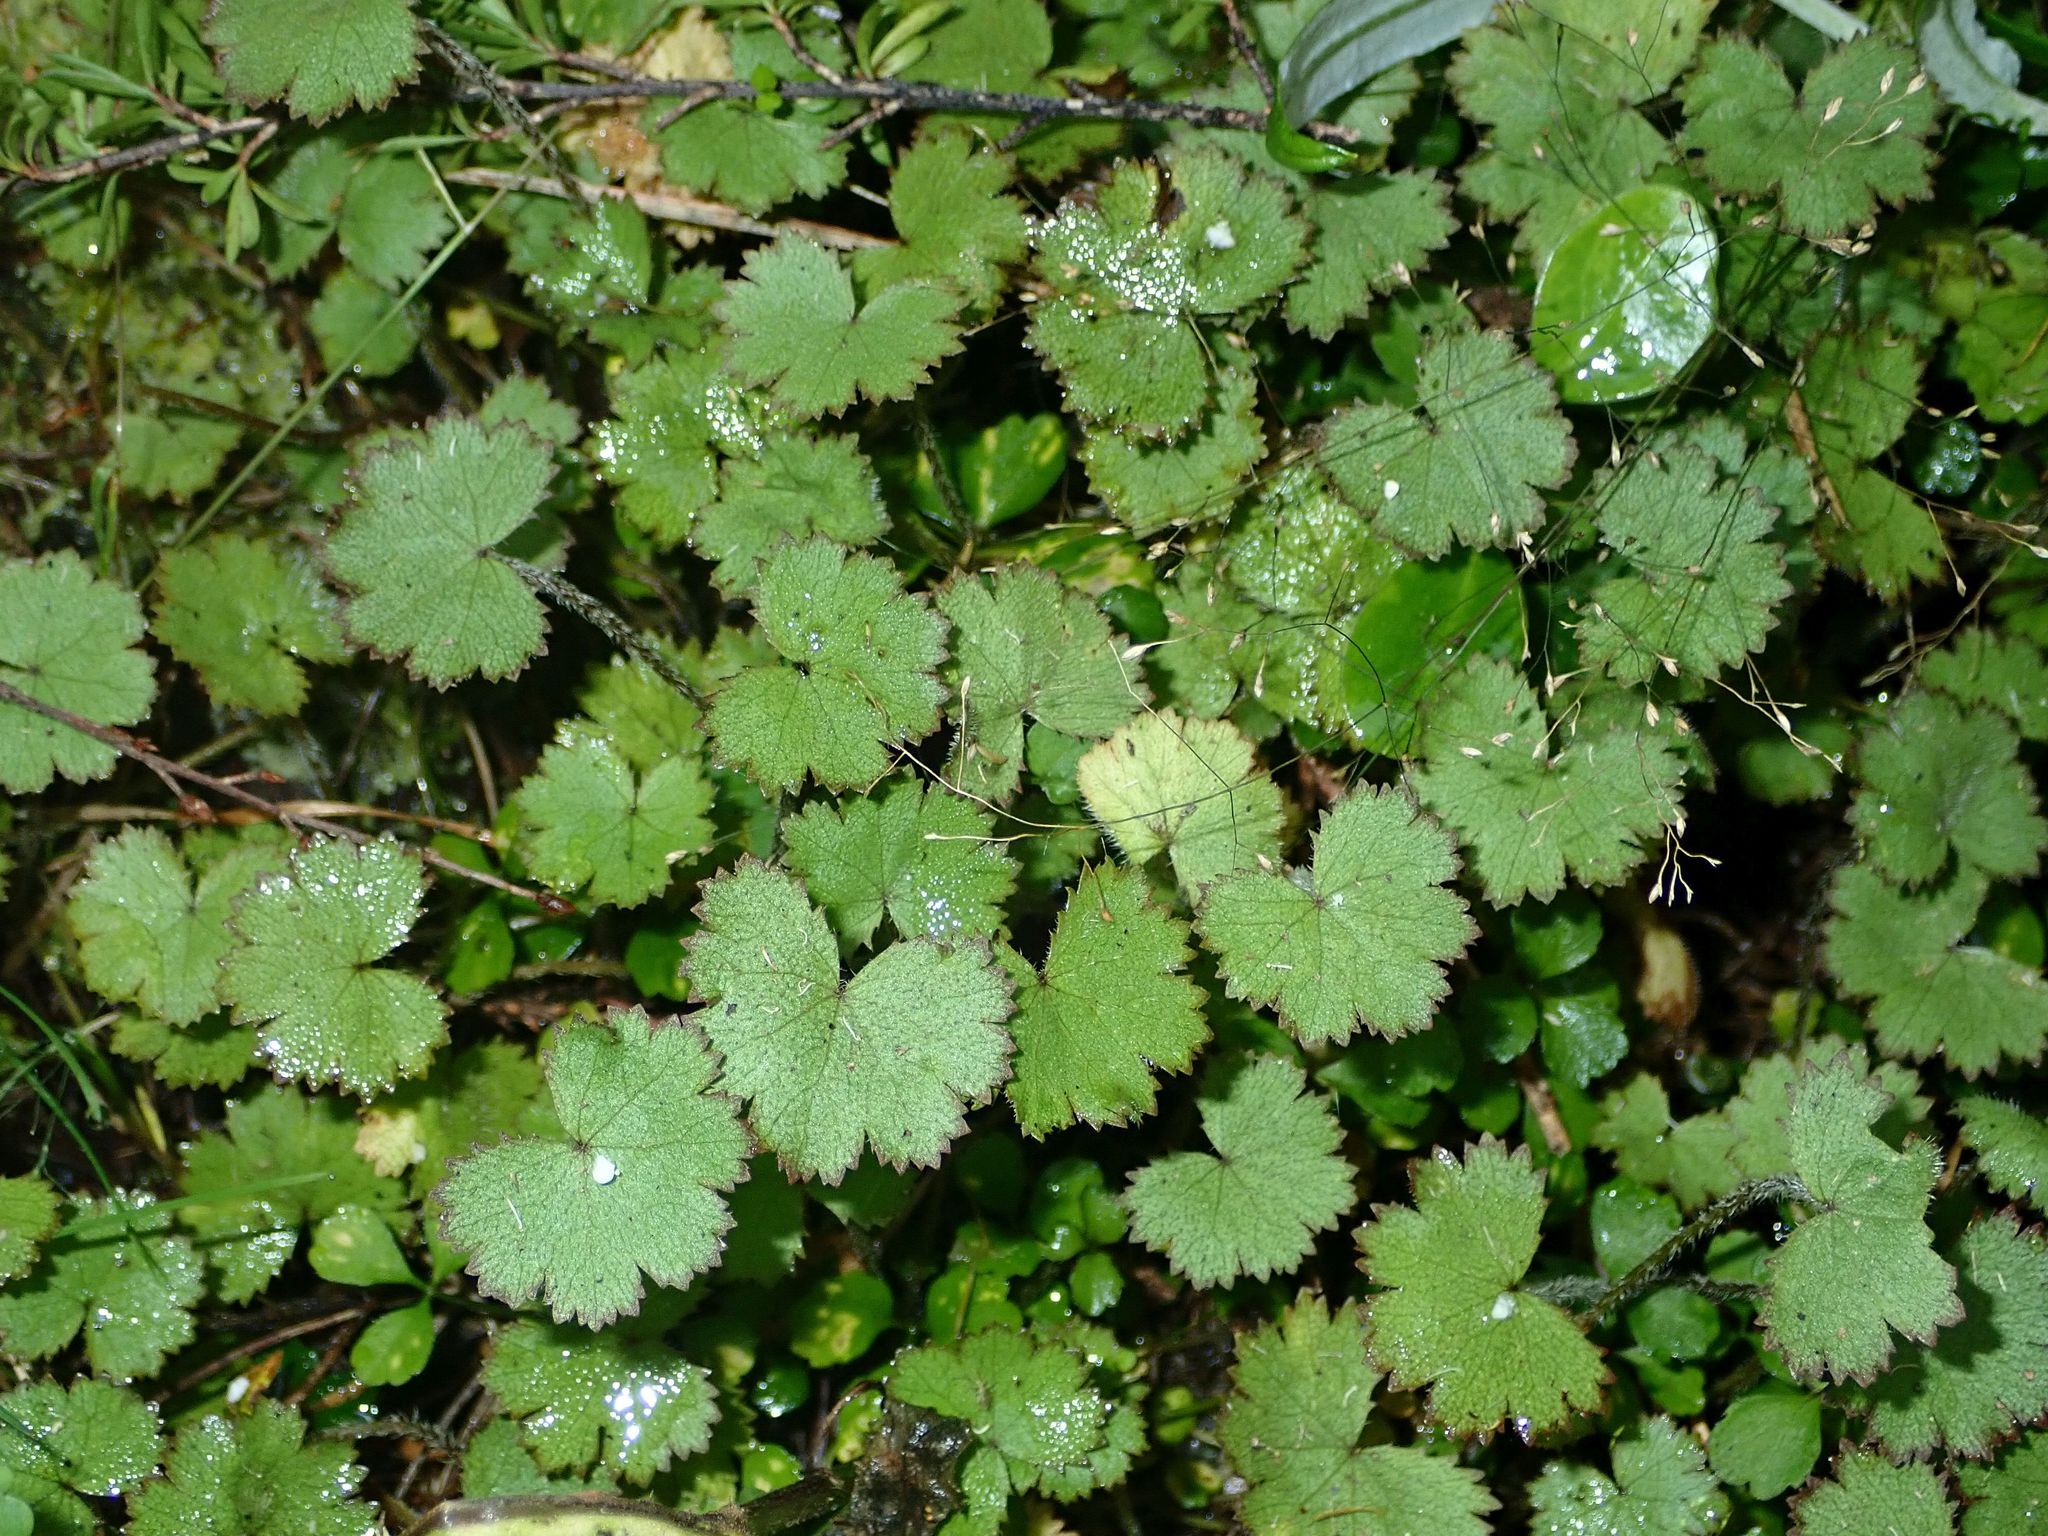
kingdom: Plantae
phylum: Tracheophyta
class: Magnoliopsida
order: Apiales
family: Araliaceae
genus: Hydrocotyle
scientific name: Hydrocotyle moschata
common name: Hairy pennywort
